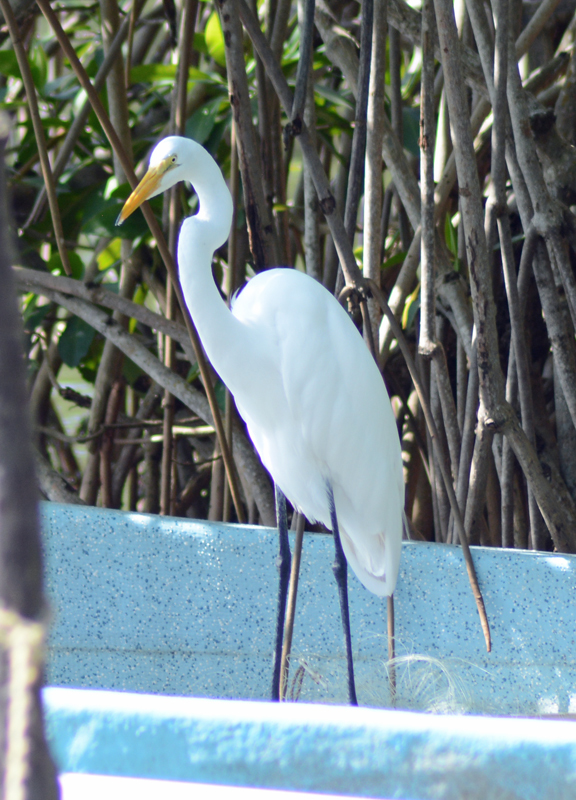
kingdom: Animalia
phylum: Chordata
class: Aves
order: Pelecaniformes
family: Ardeidae
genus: Ardea
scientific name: Ardea alba
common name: Great egret
